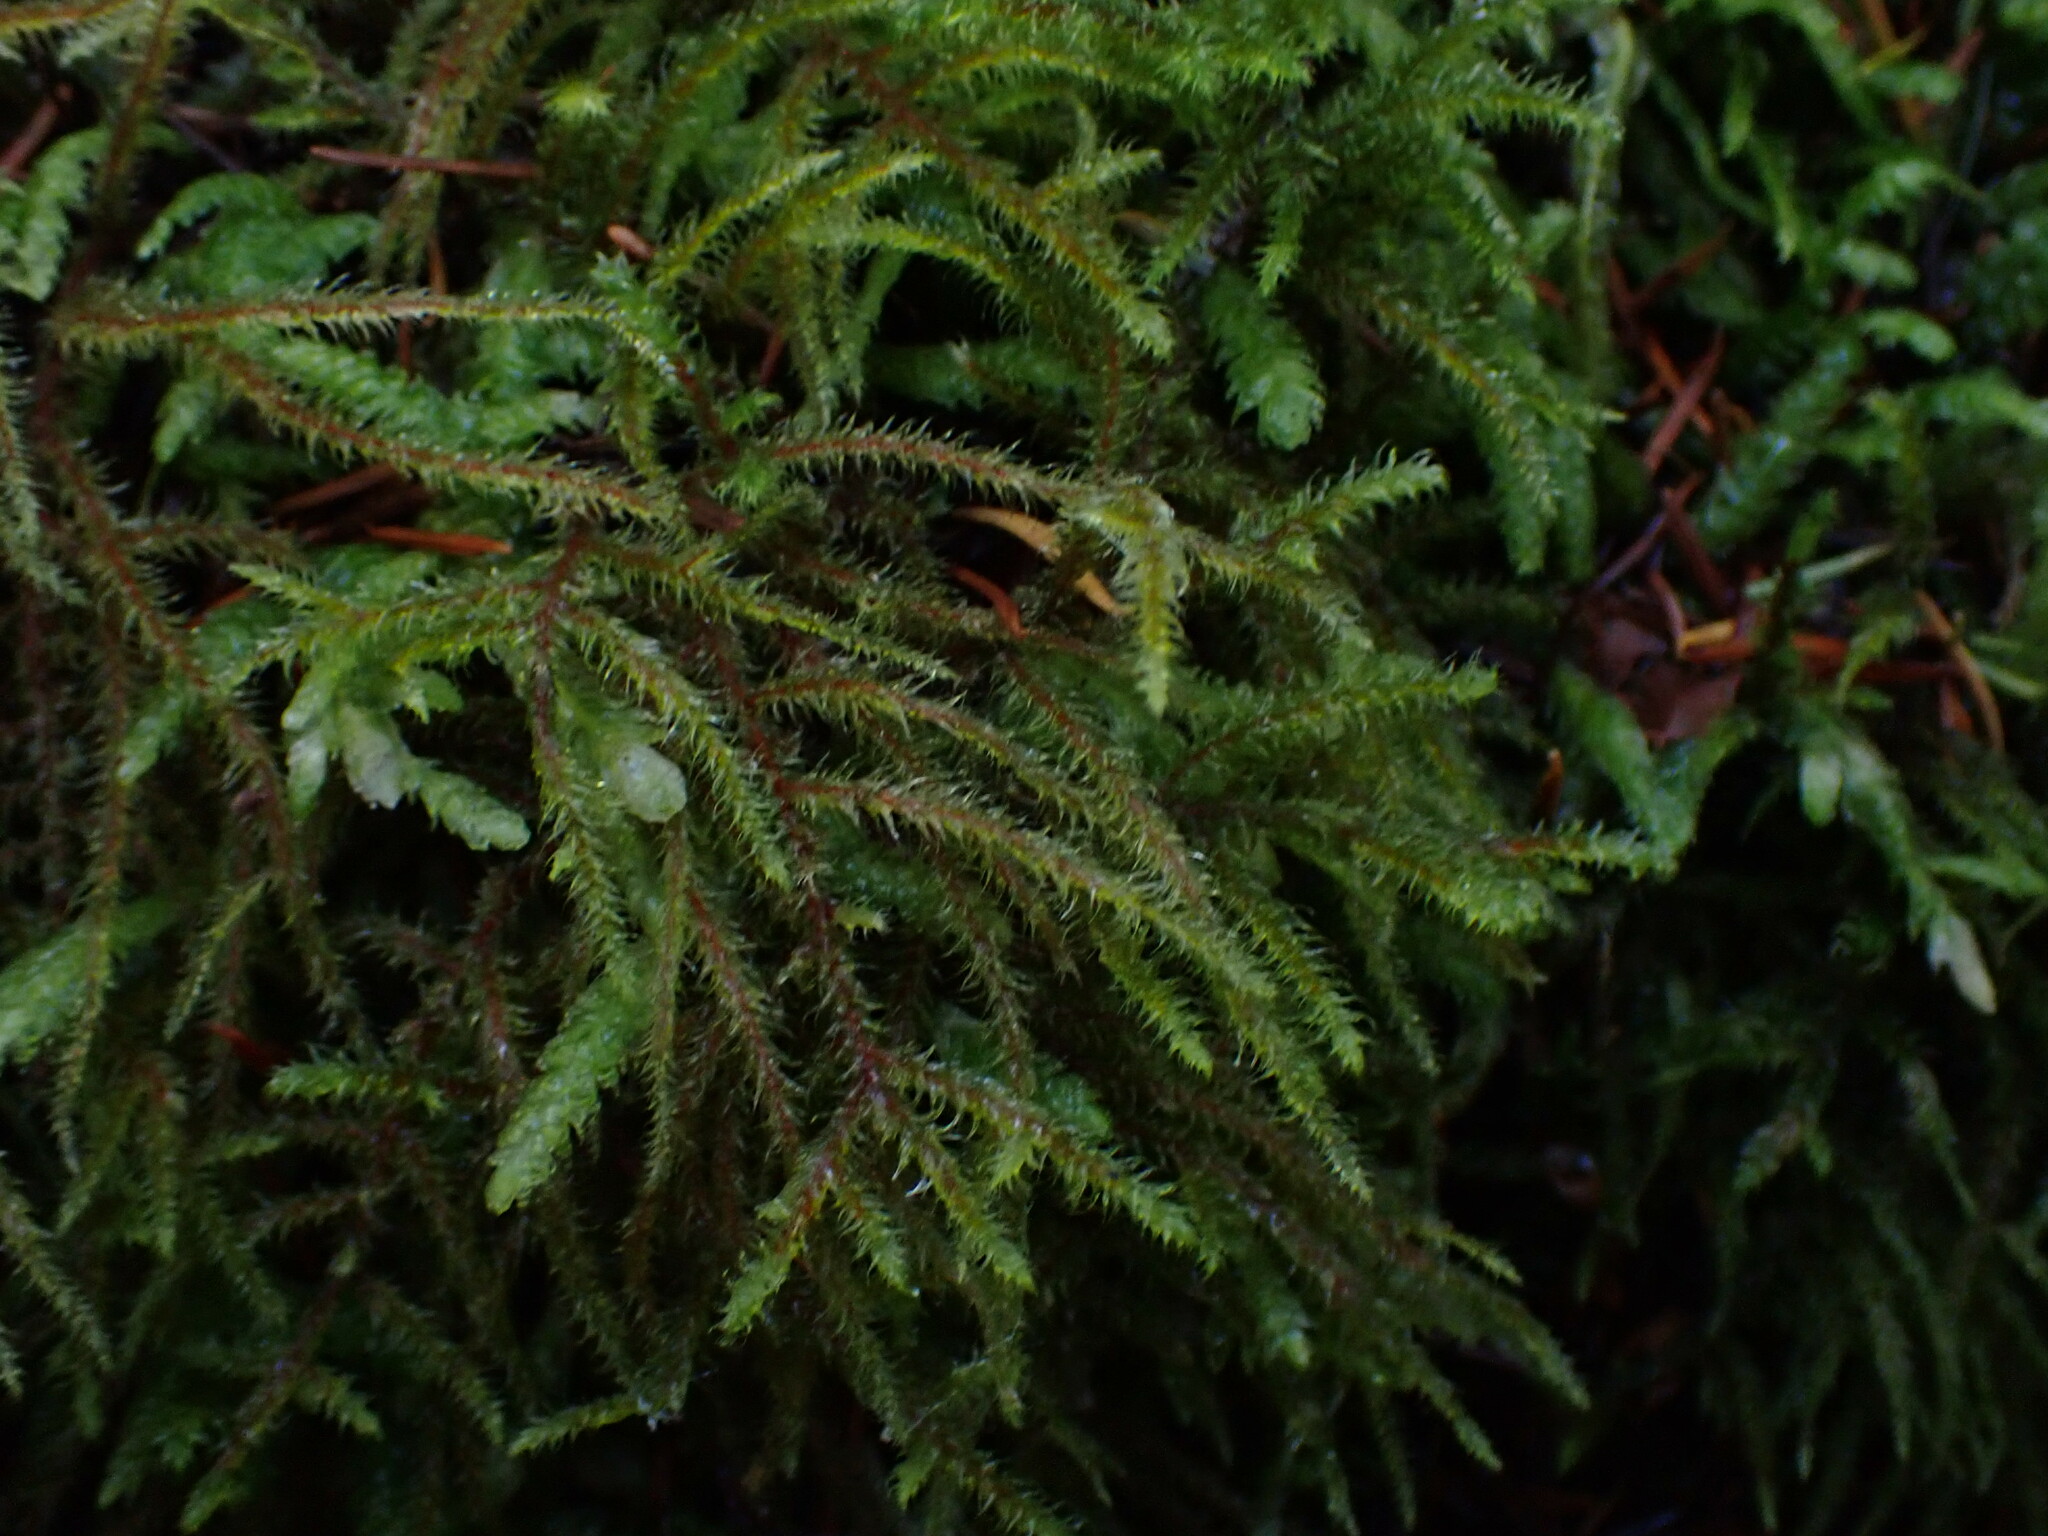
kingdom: Plantae
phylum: Bryophyta
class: Bryopsida
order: Hypnales
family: Hylocomiaceae
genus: Rhytidiadelphus
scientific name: Rhytidiadelphus loreus
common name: Lanky moss
